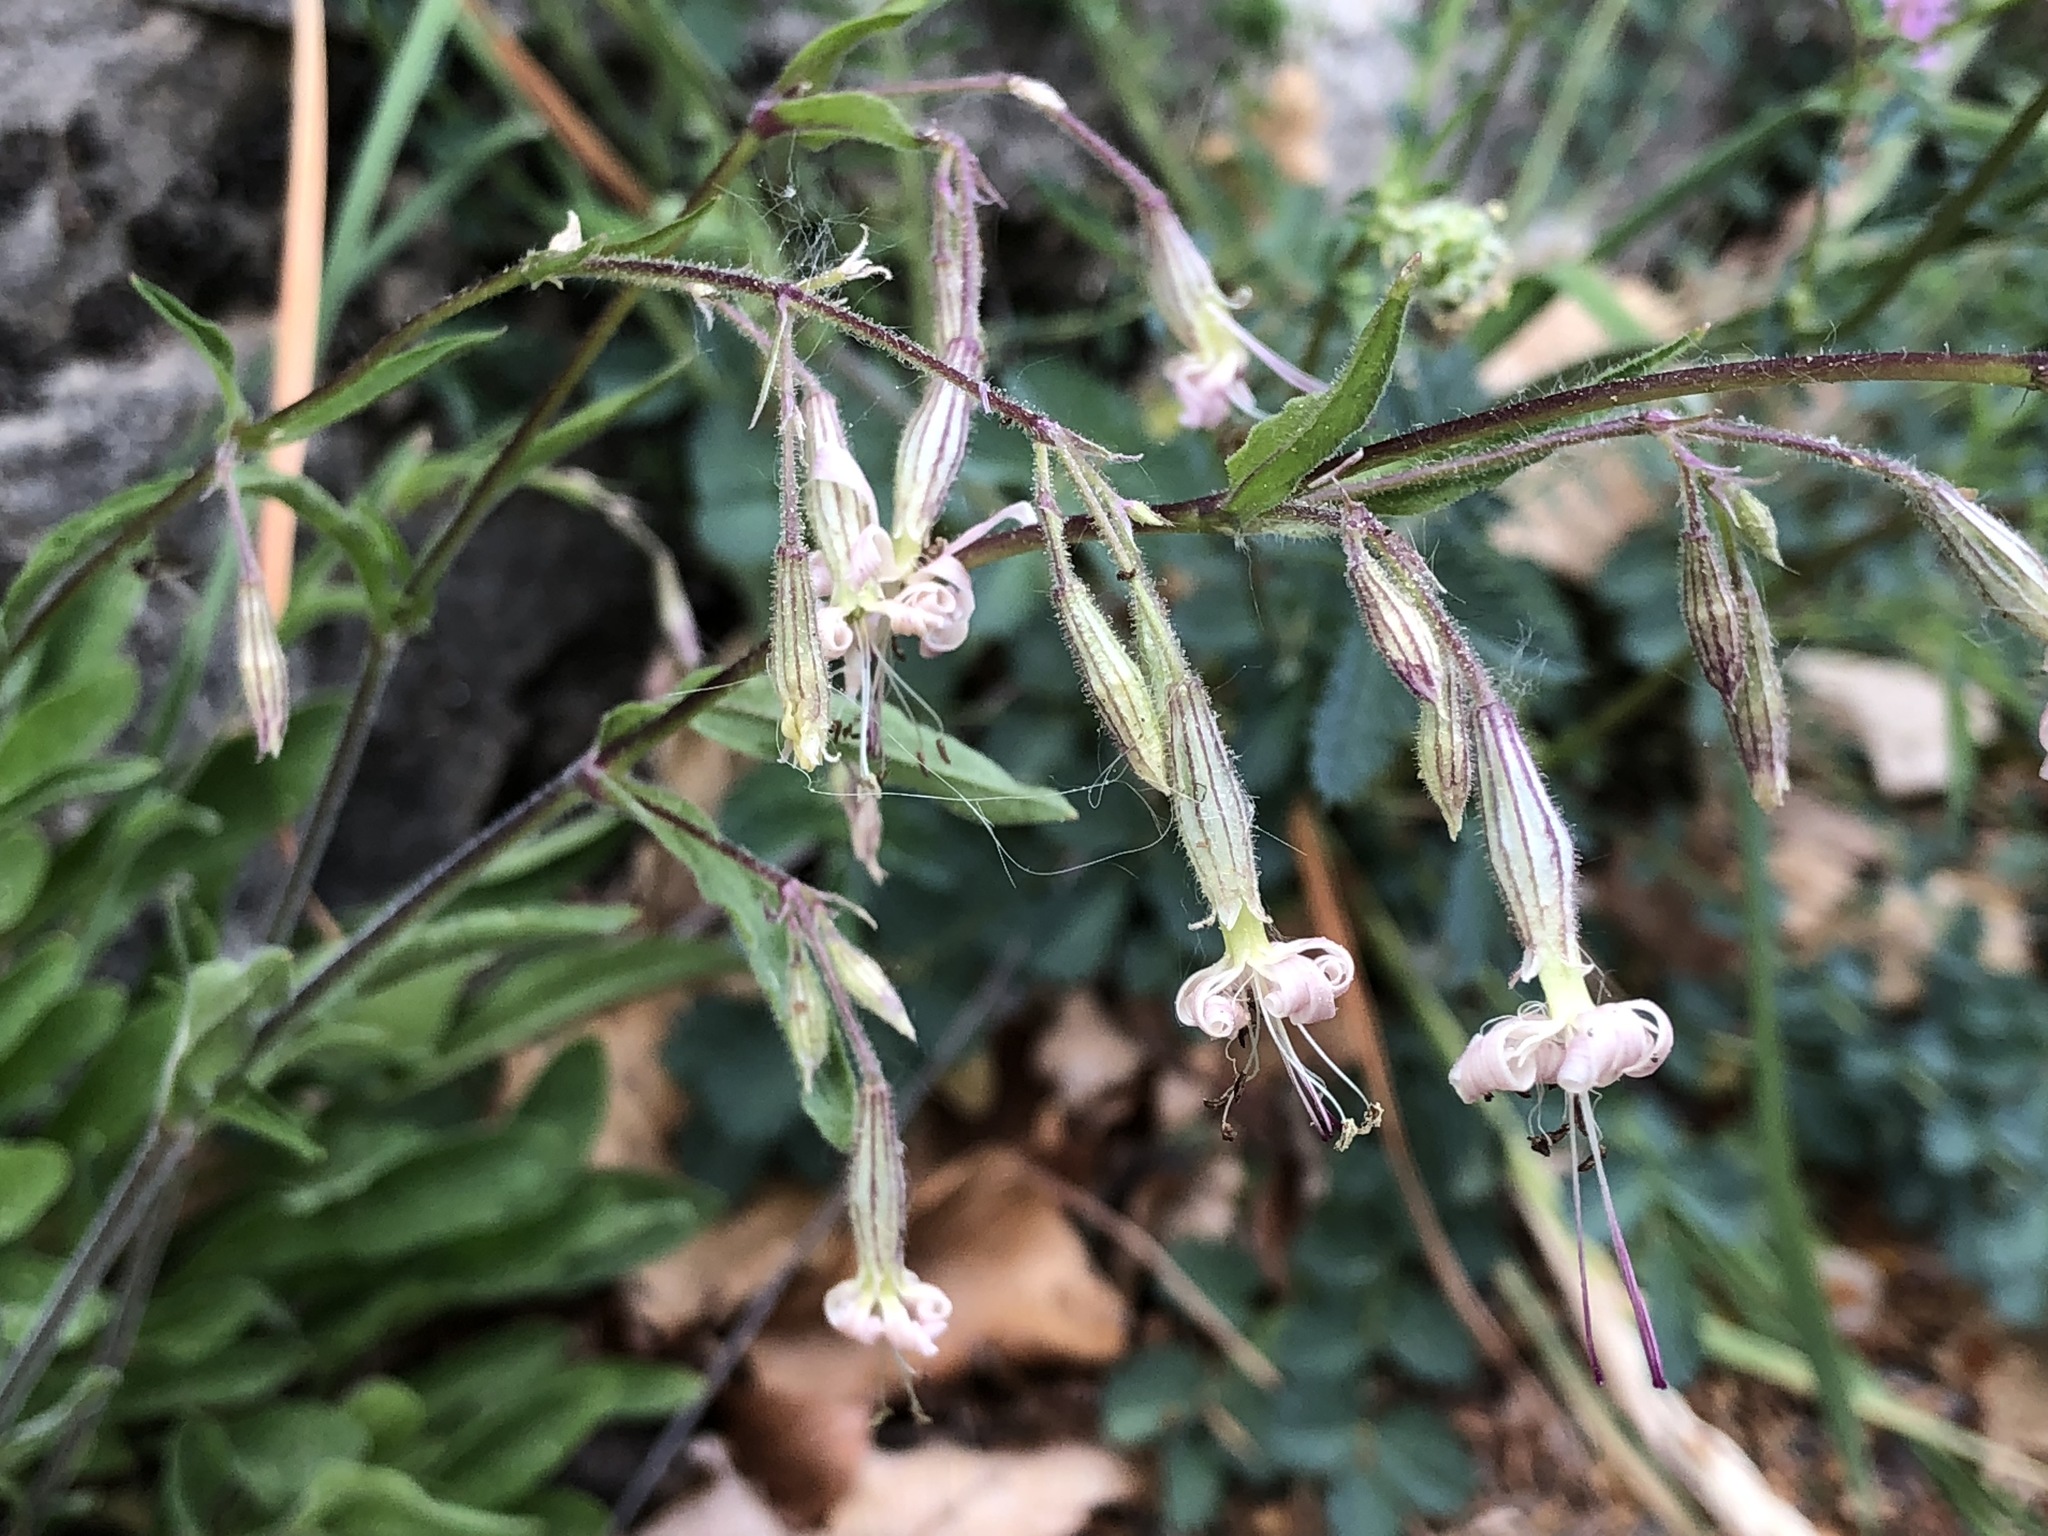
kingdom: Plantae
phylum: Tracheophyta
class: Magnoliopsida
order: Caryophyllales
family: Caryophyllaceae
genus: Silene
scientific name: Silene nutans
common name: Nottingham catchfly
